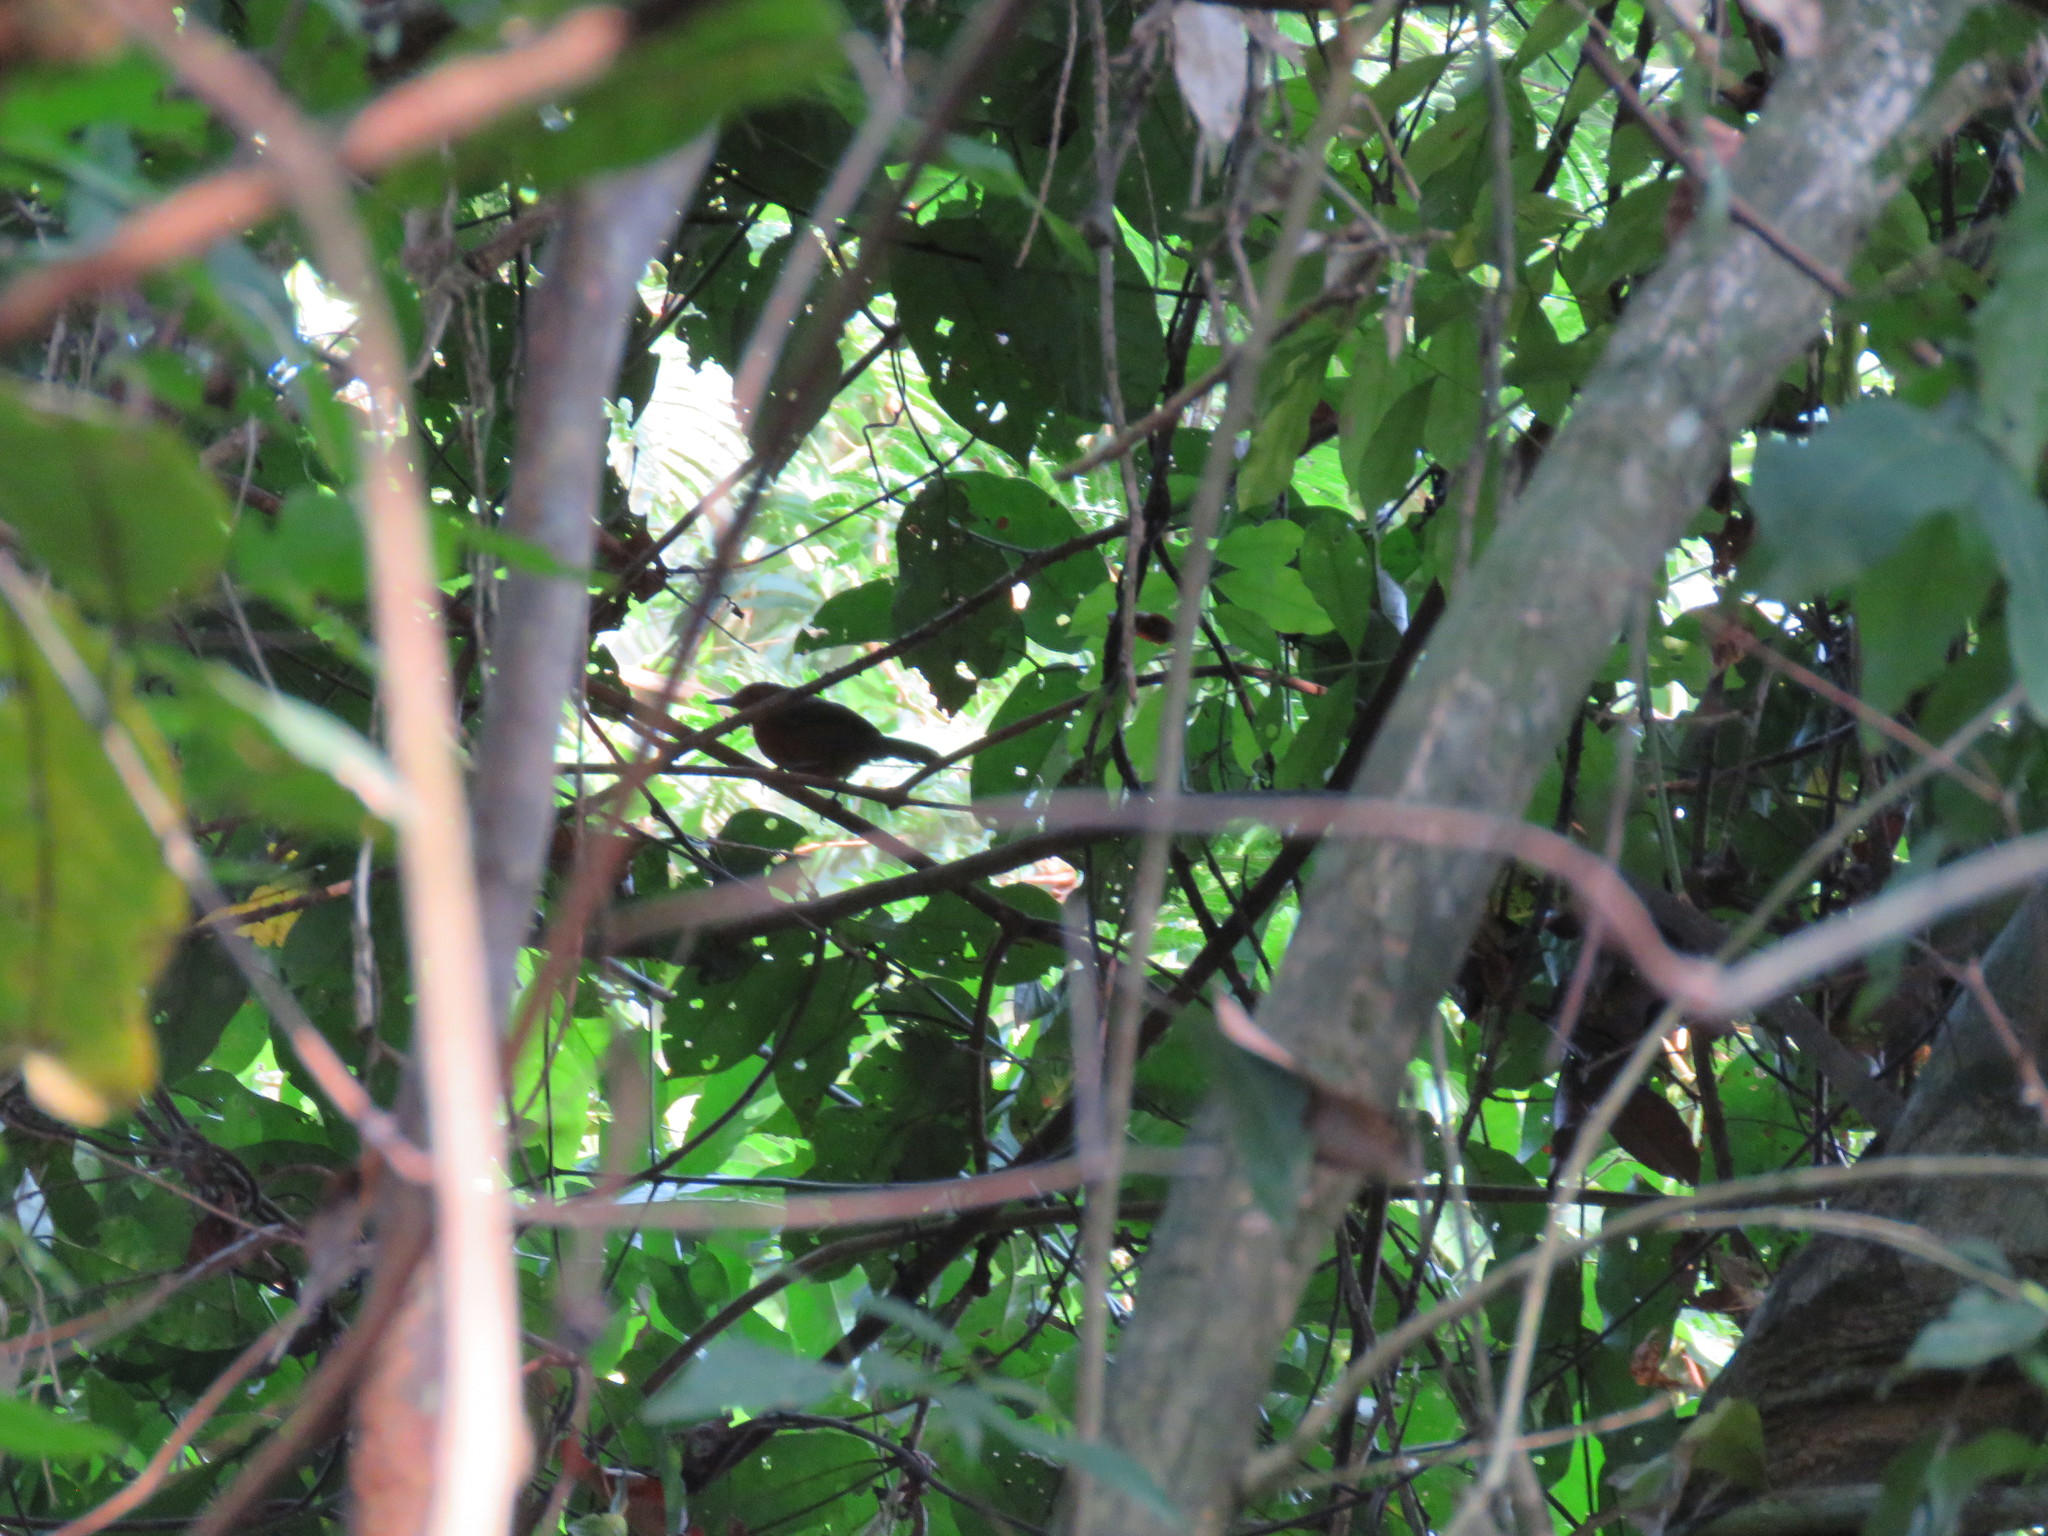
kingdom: Animalia
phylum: Chordata
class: Aves
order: Passeriformes
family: Thamnophilidae
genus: Cercomacra
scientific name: Cercomacra nigrescens
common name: Blackish antbird
